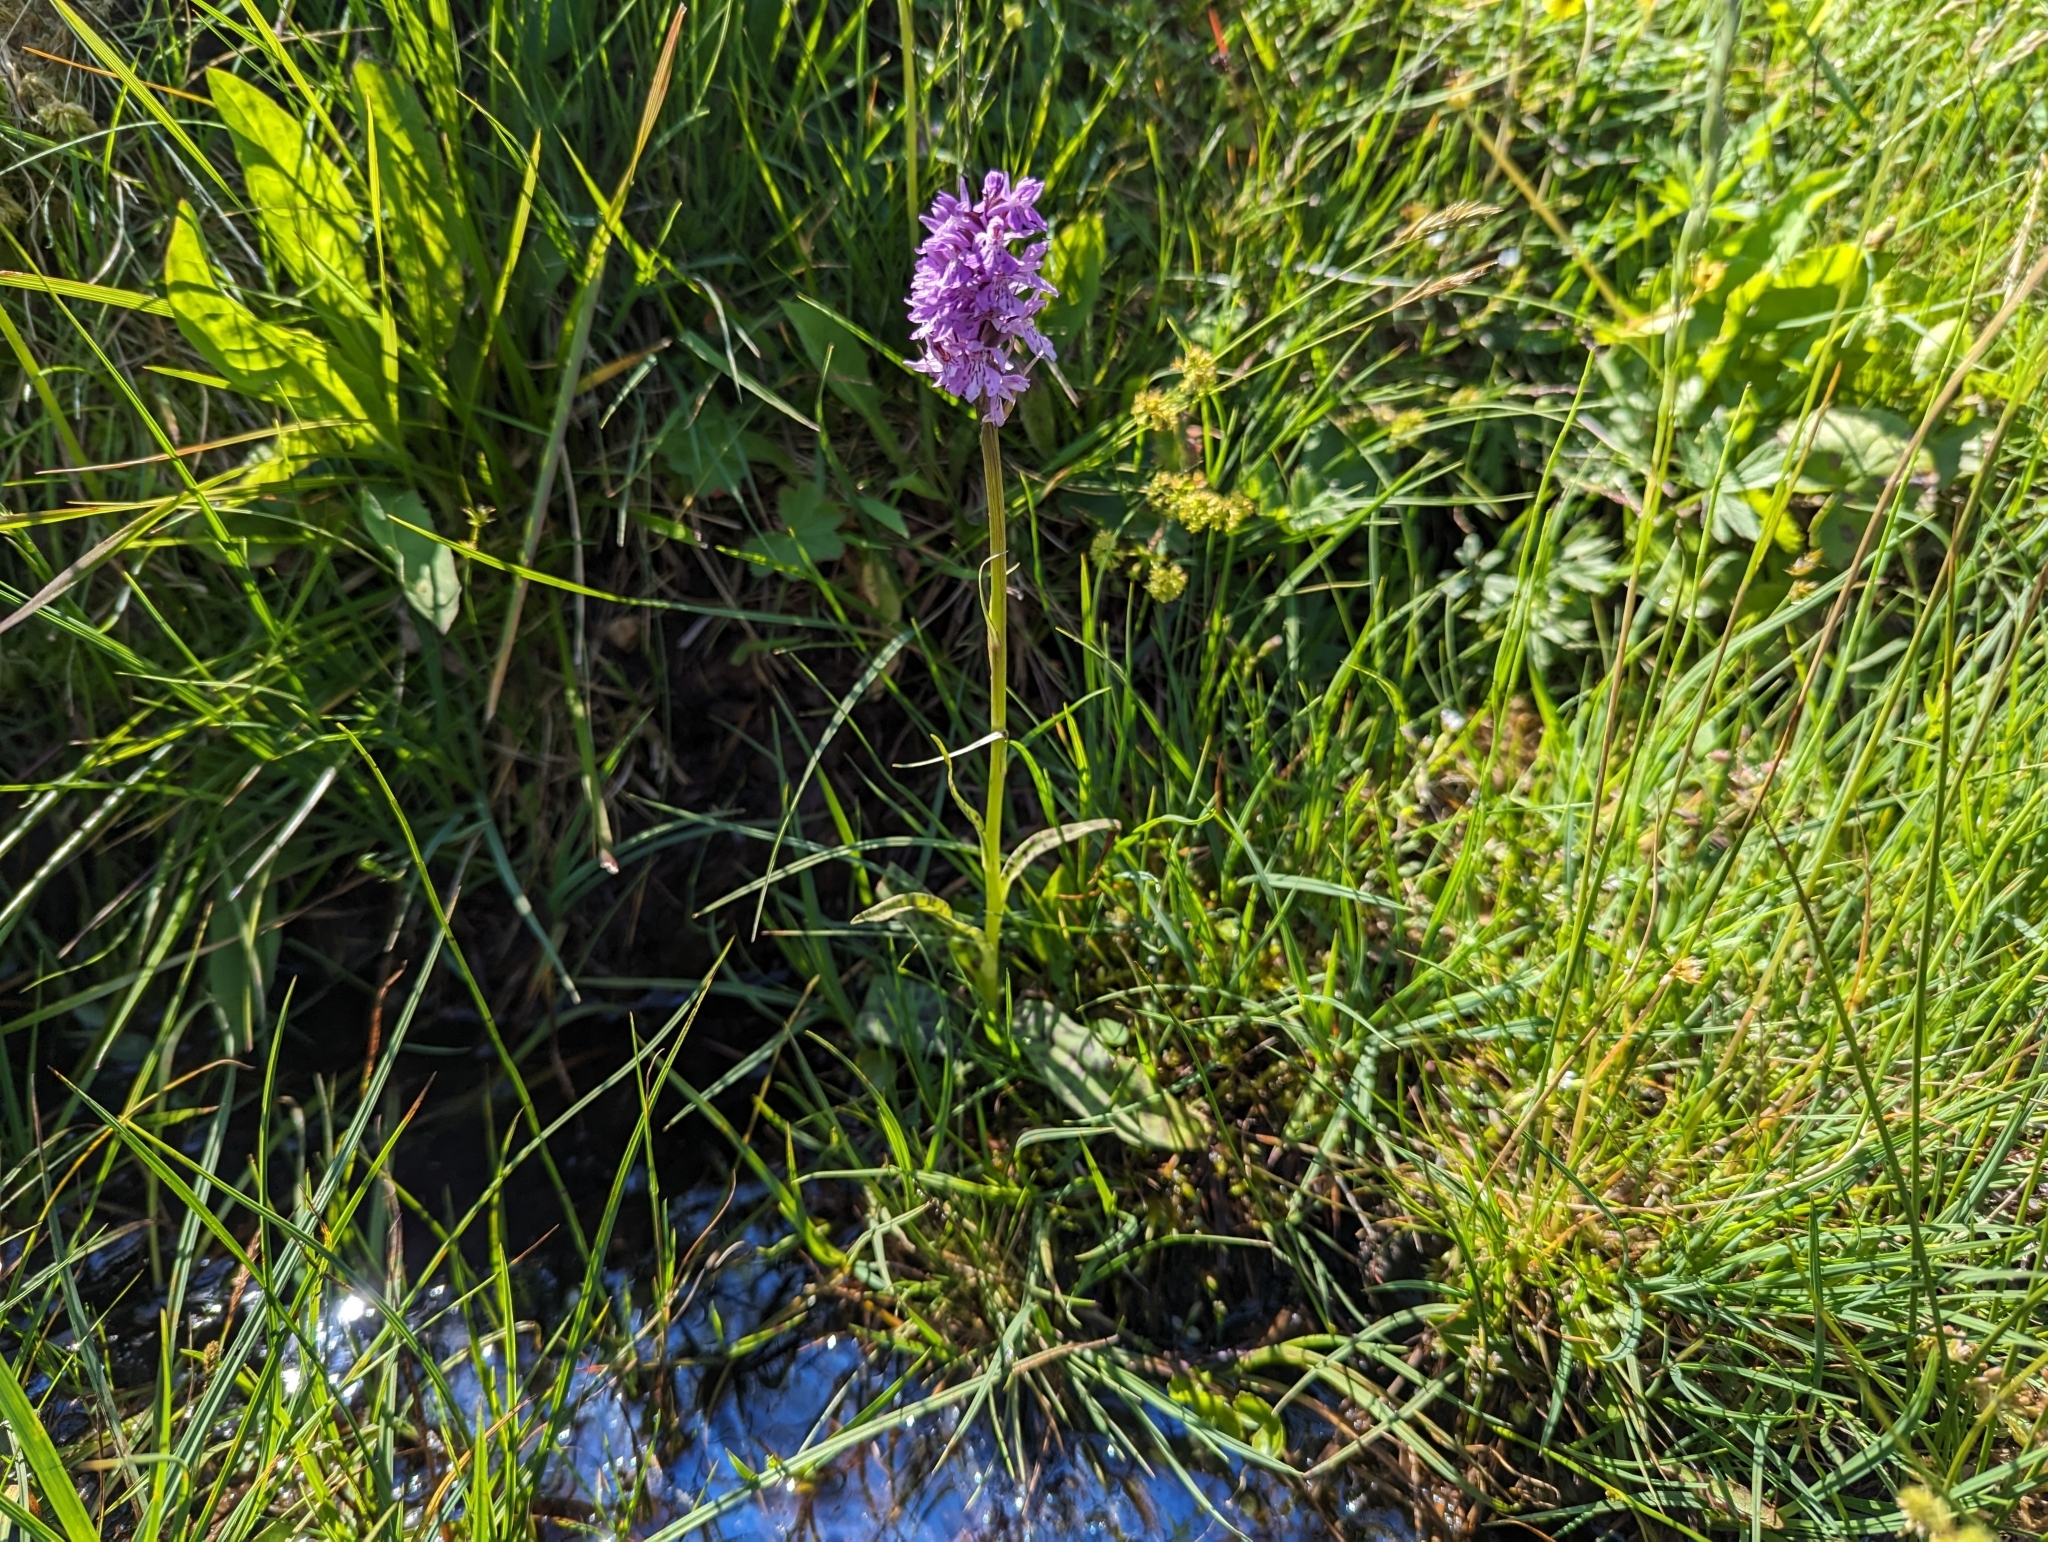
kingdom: Plantae
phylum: Tracheophyta
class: Liliopsida
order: Asparagales
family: Orchidaceae
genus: Dactylorhiza
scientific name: Dactylorhiza maculata
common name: Heath spotted-orchid
